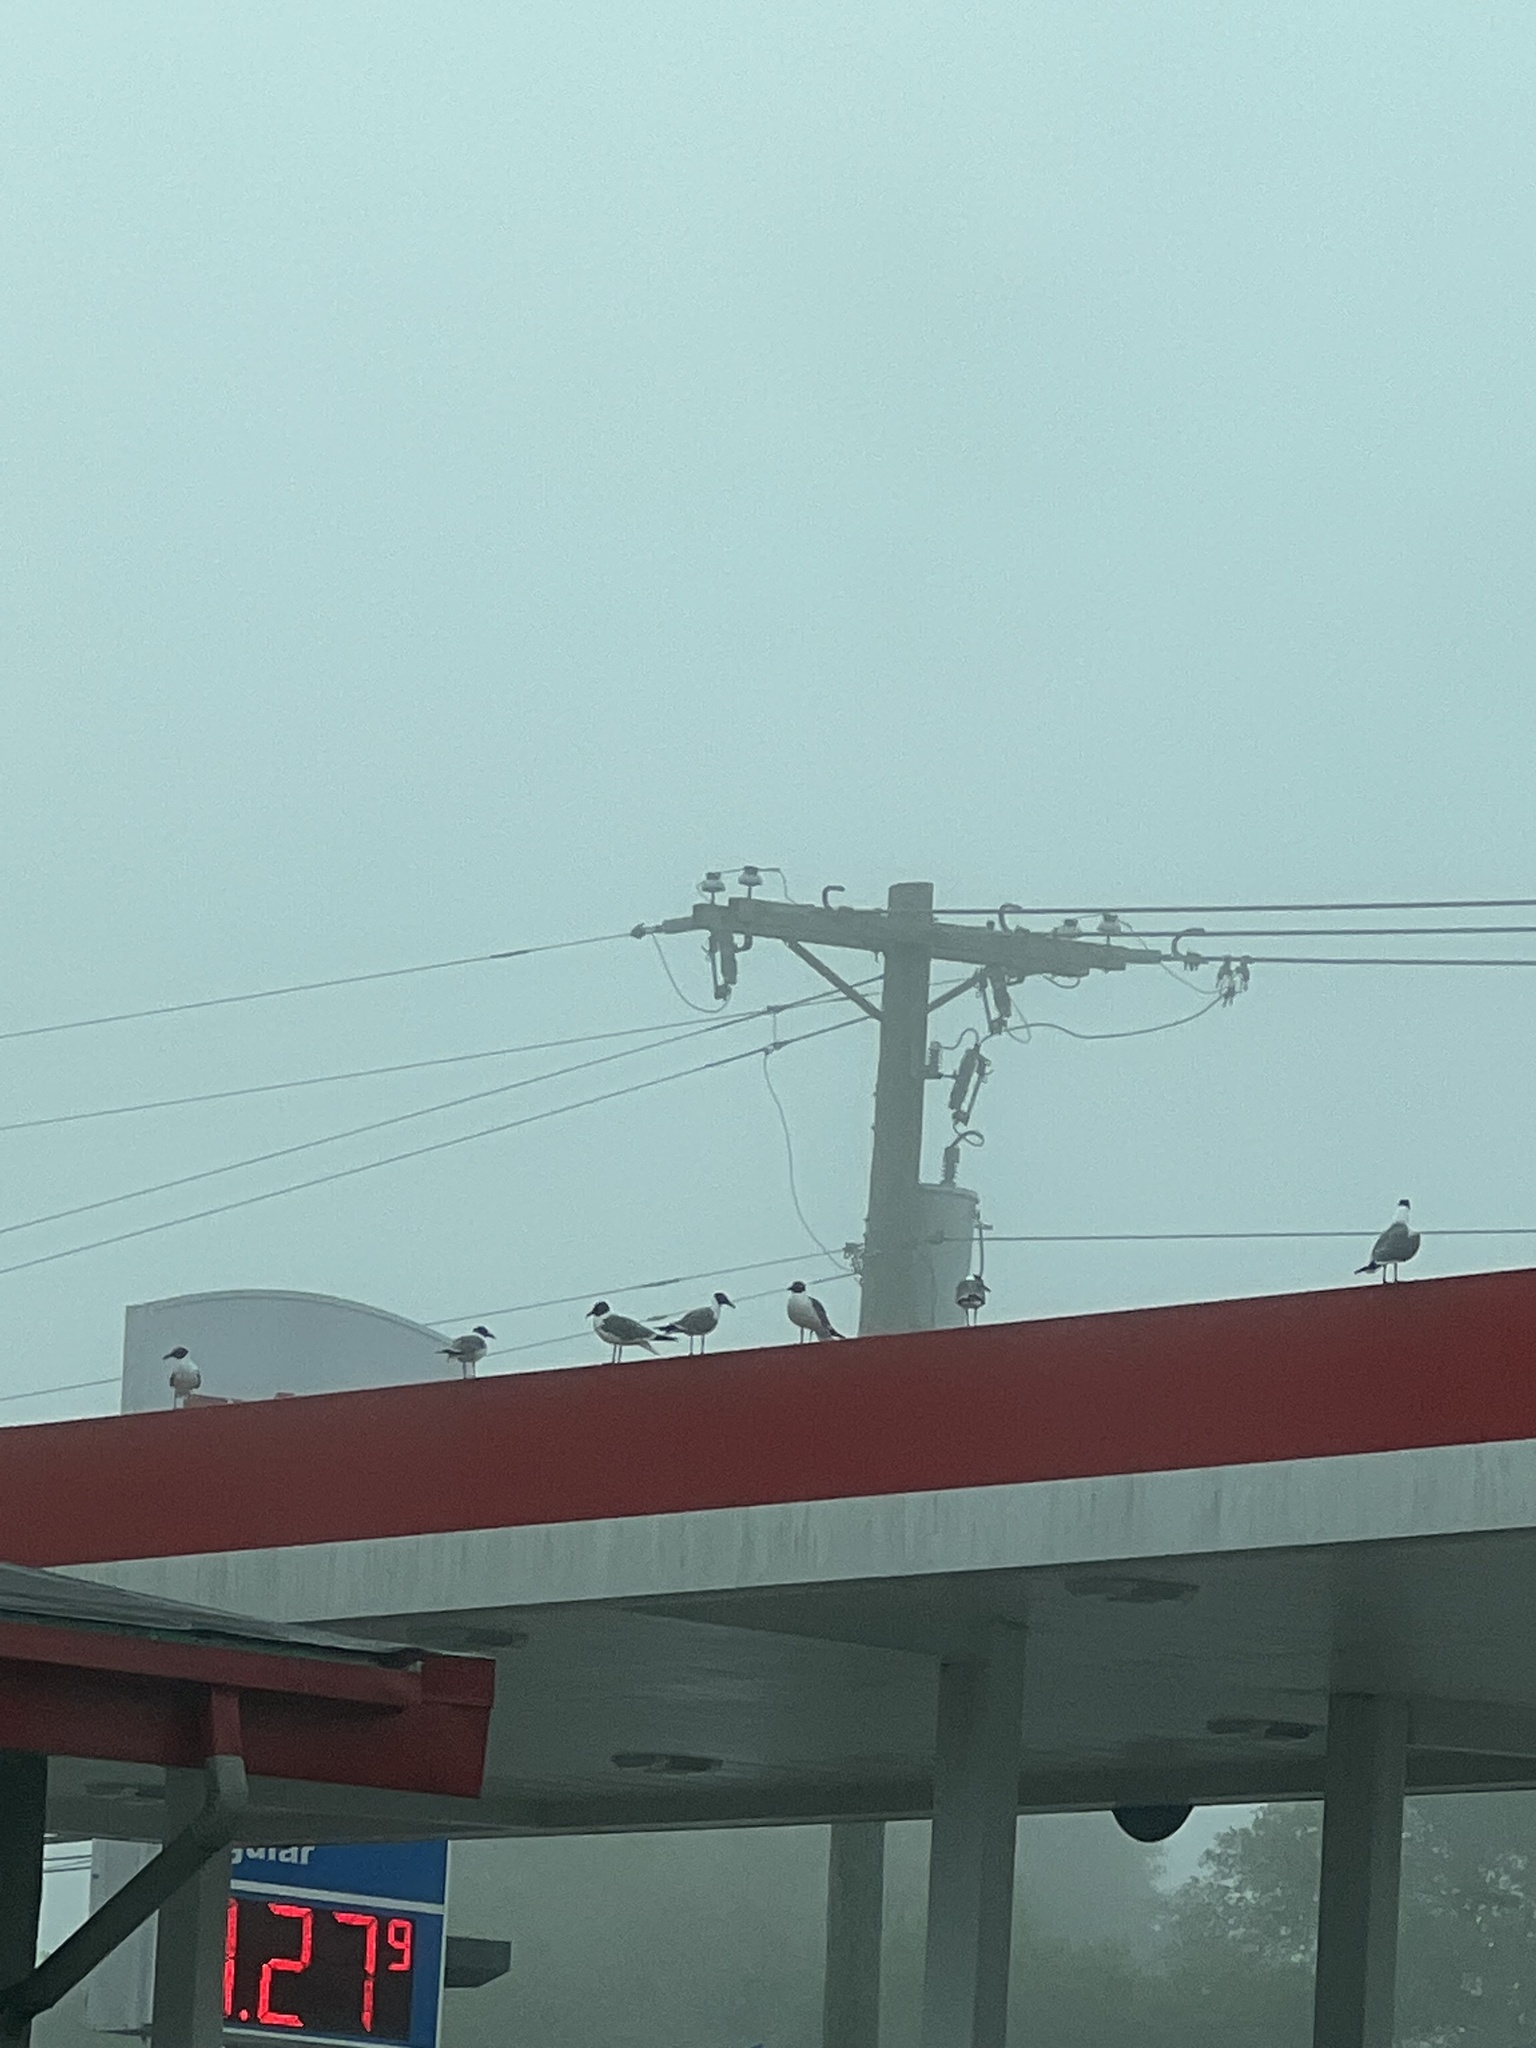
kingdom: Animalia
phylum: Chordata
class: Aves
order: Charadriiformes
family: Laridae
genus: Leucophaeus
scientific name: Leucophaeus atricilla
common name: Laughing gull
